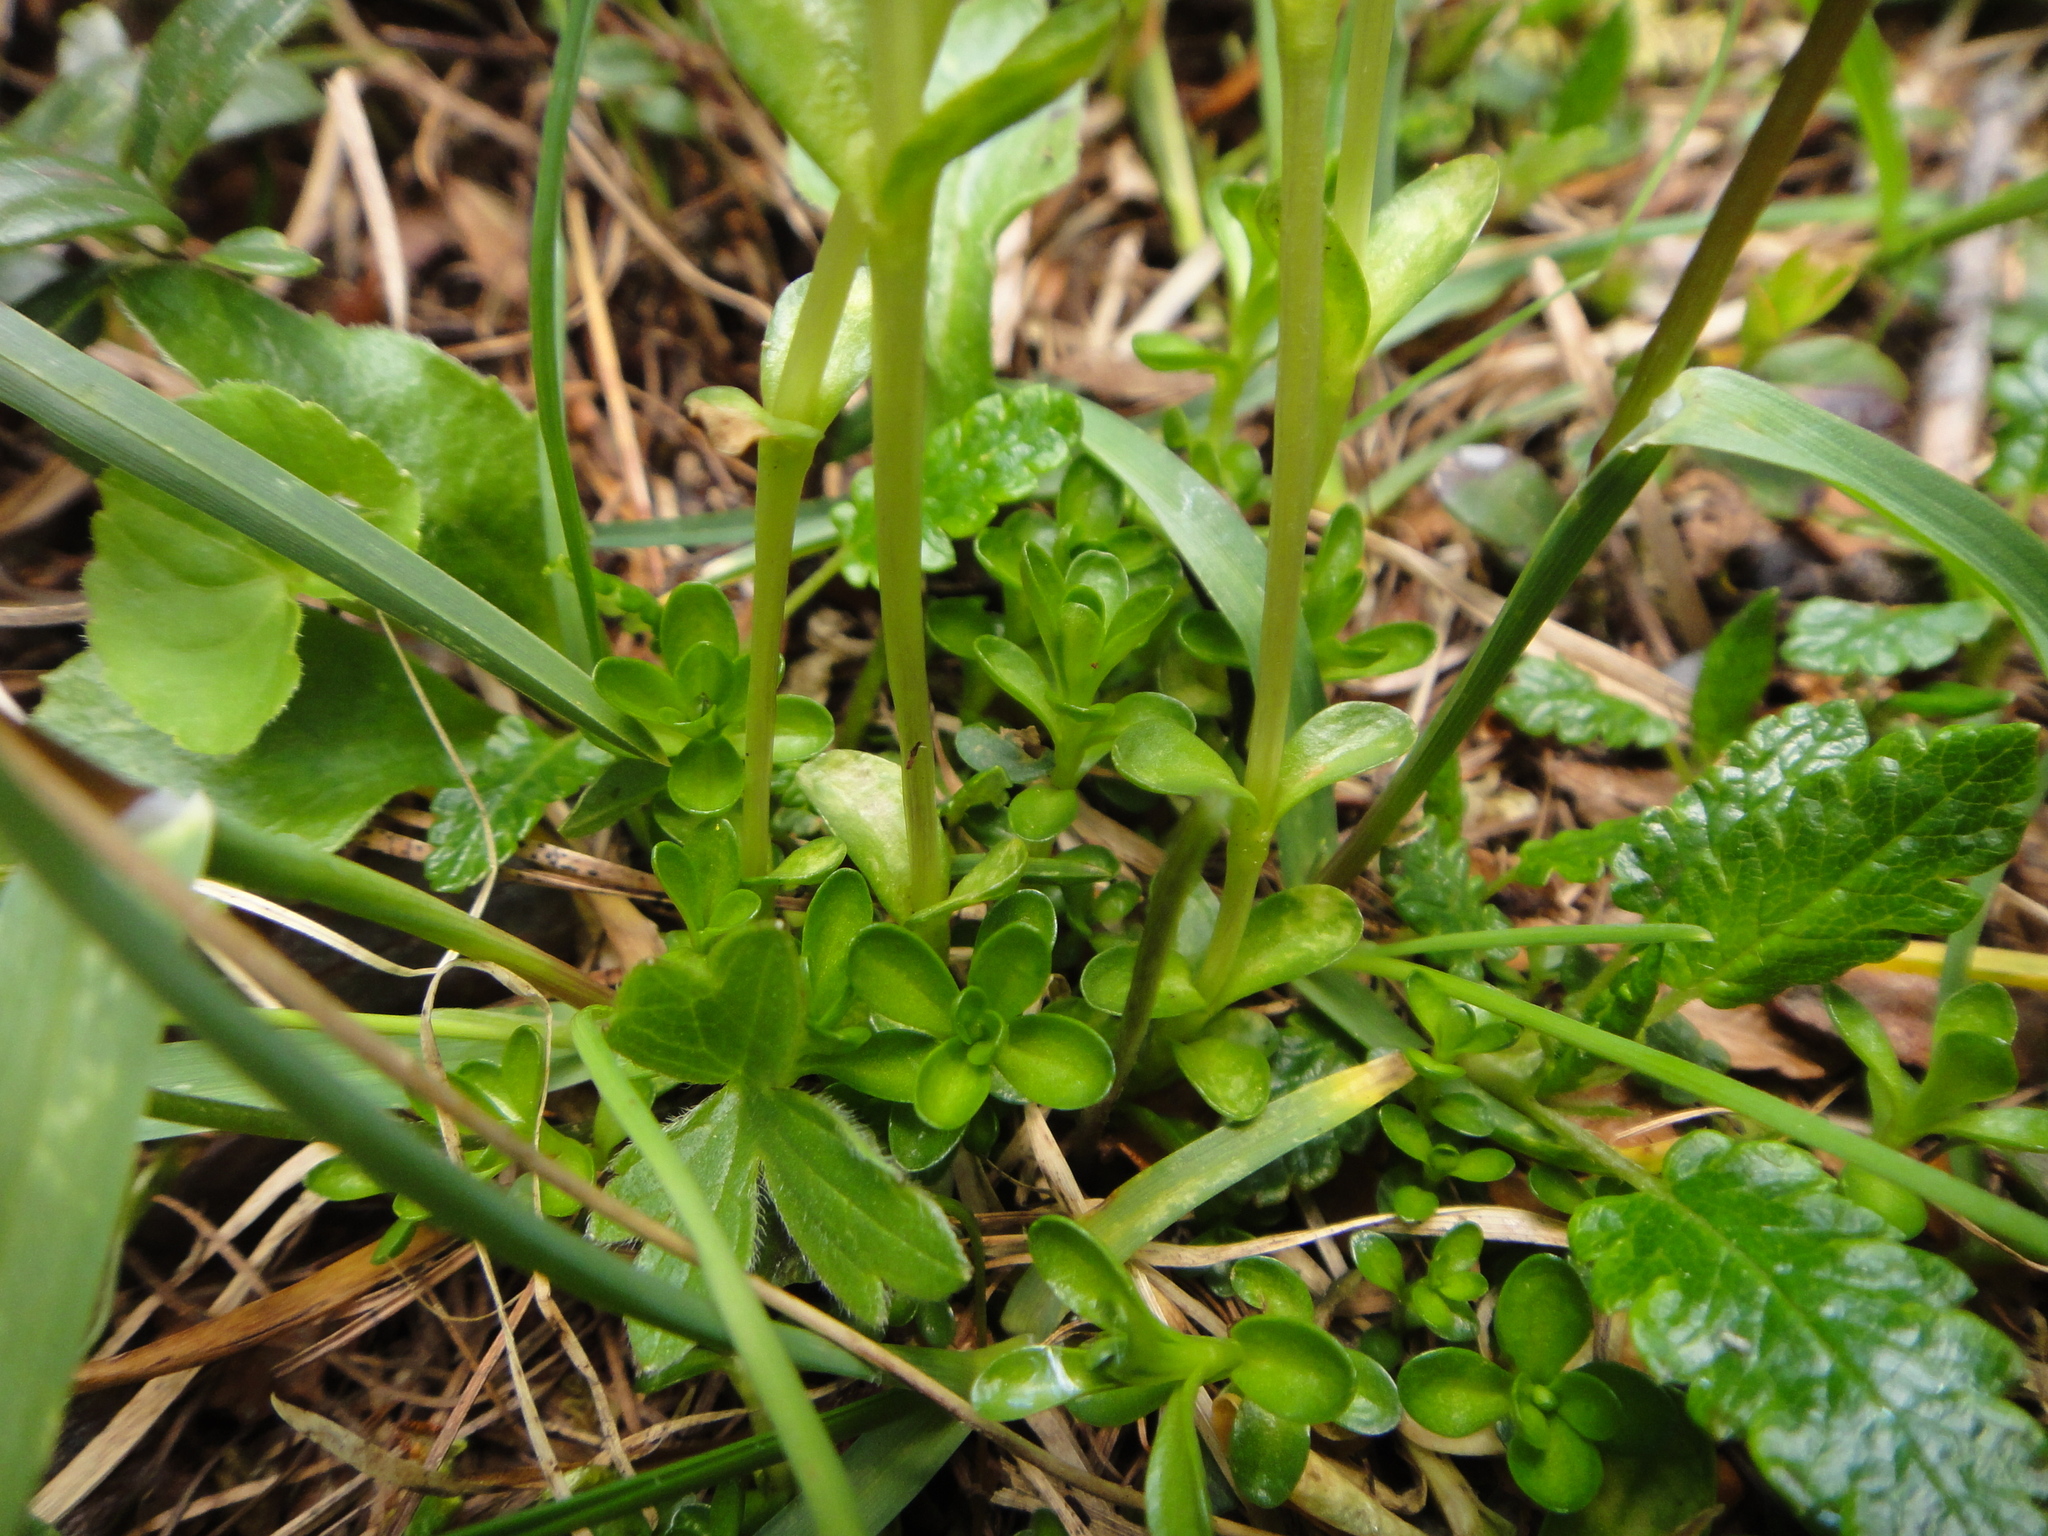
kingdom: Plantae
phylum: Tracheophyta
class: Magnoliopsida
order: Gentianales
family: Gentianaceae
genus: Gentiana
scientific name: Gentiana bavarica
